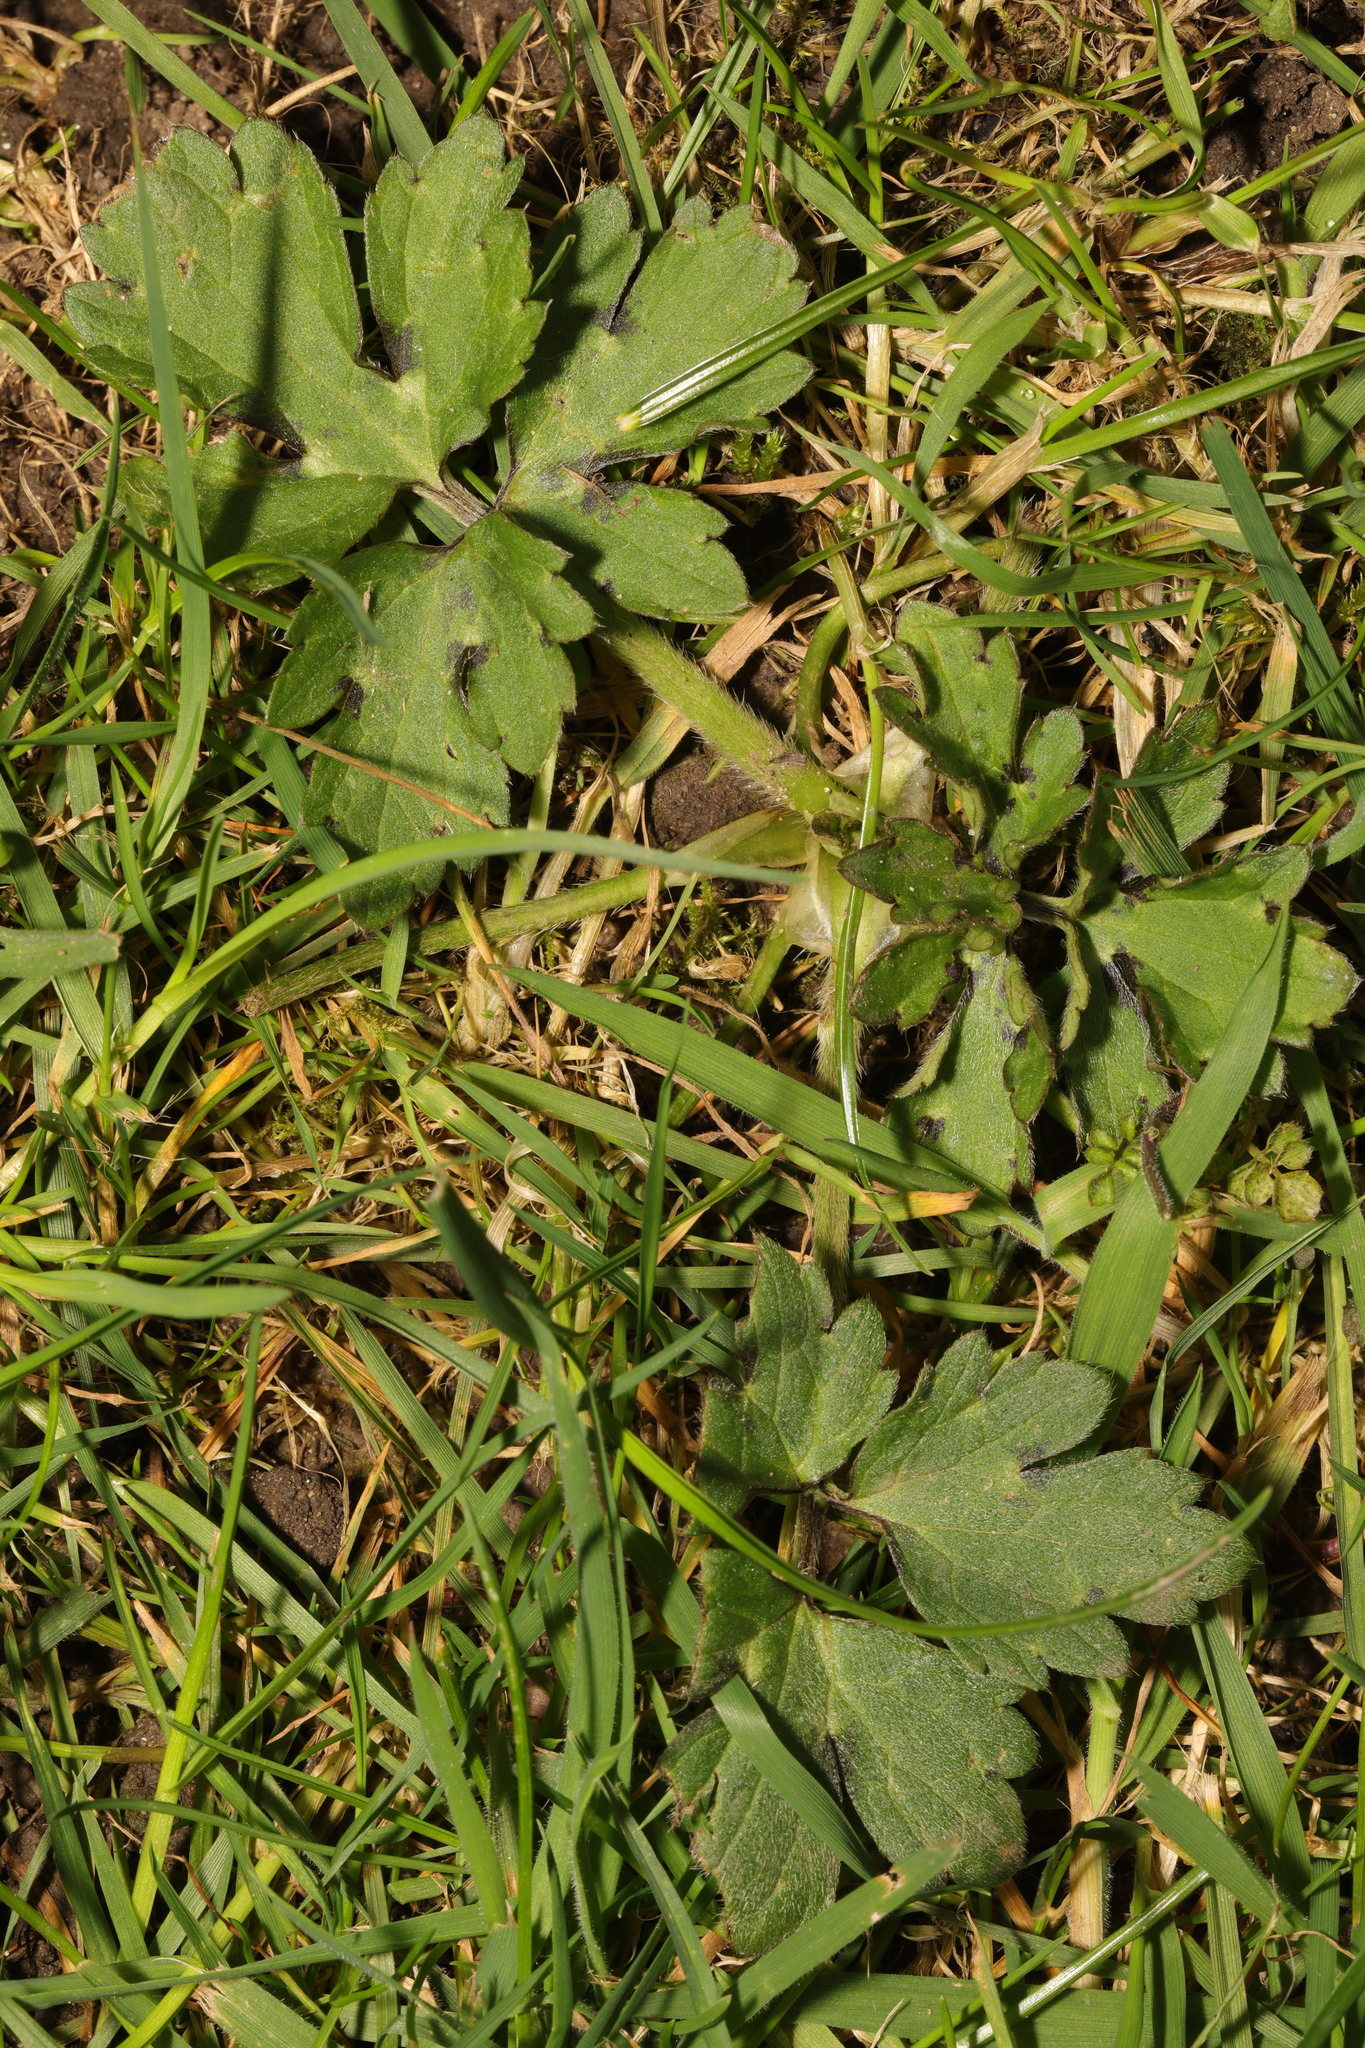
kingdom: Plantae
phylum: Tracheophyta
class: Magnoliopsida
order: Ranunculales
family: Ranunculaceae
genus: Ranunculus
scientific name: Ranunculus repens
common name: Creeping buttercup
